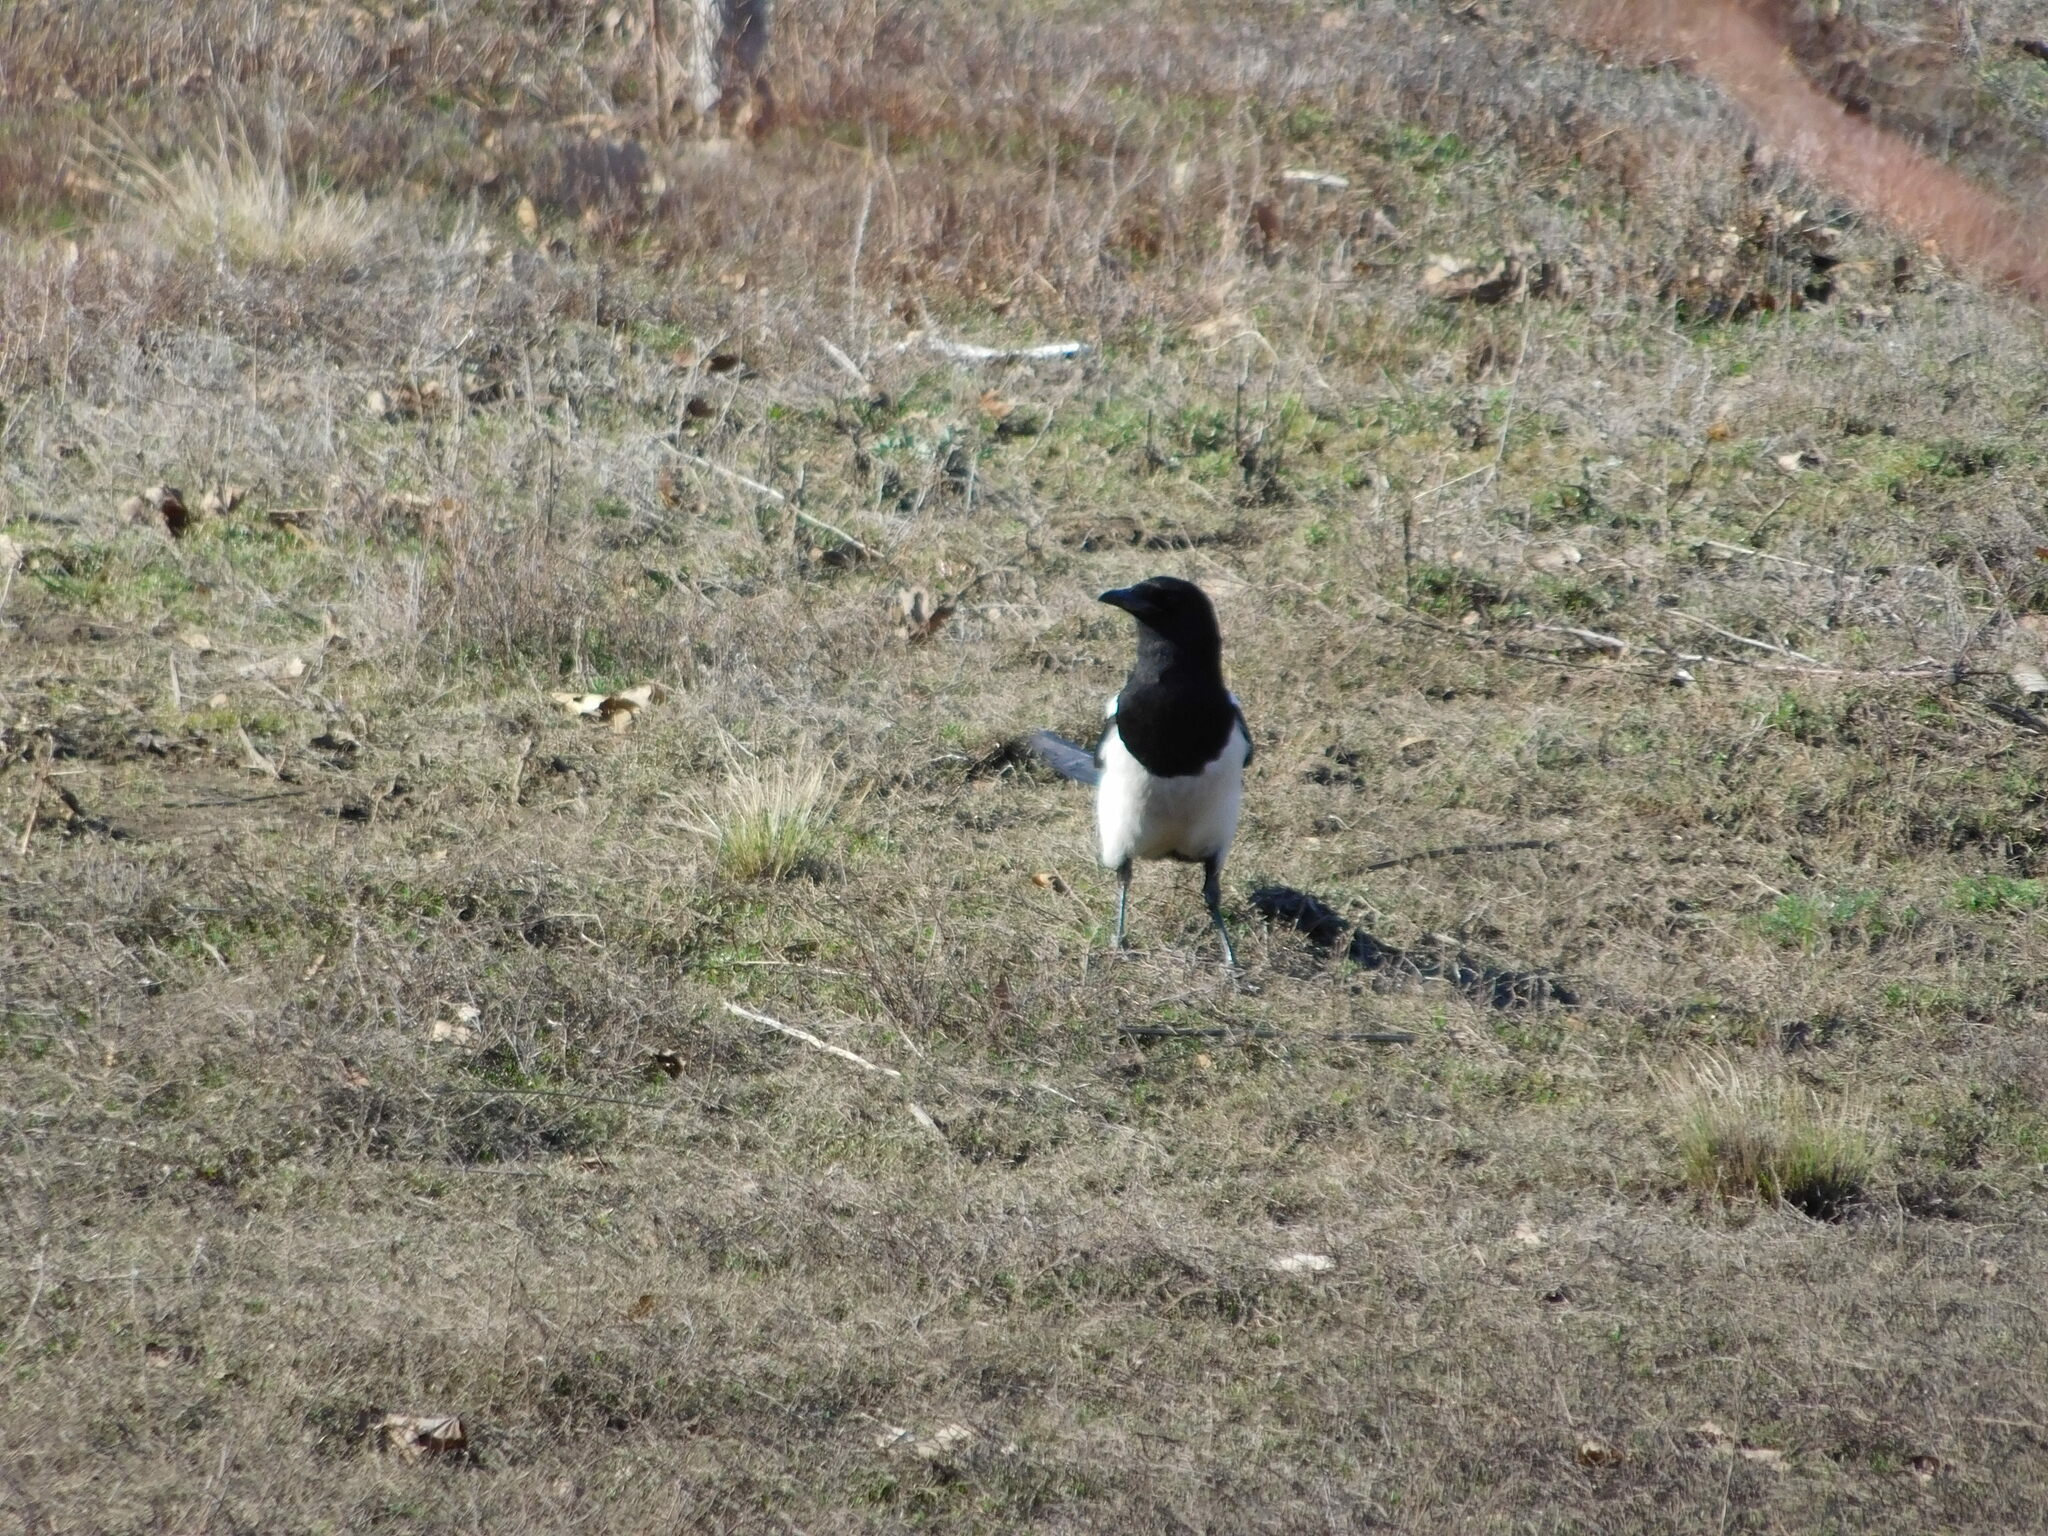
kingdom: Animalia
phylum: Chordata
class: Aves
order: Passeriformes
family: Corvidae
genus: Pica
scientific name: Pica pica
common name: Eurasian magpie
